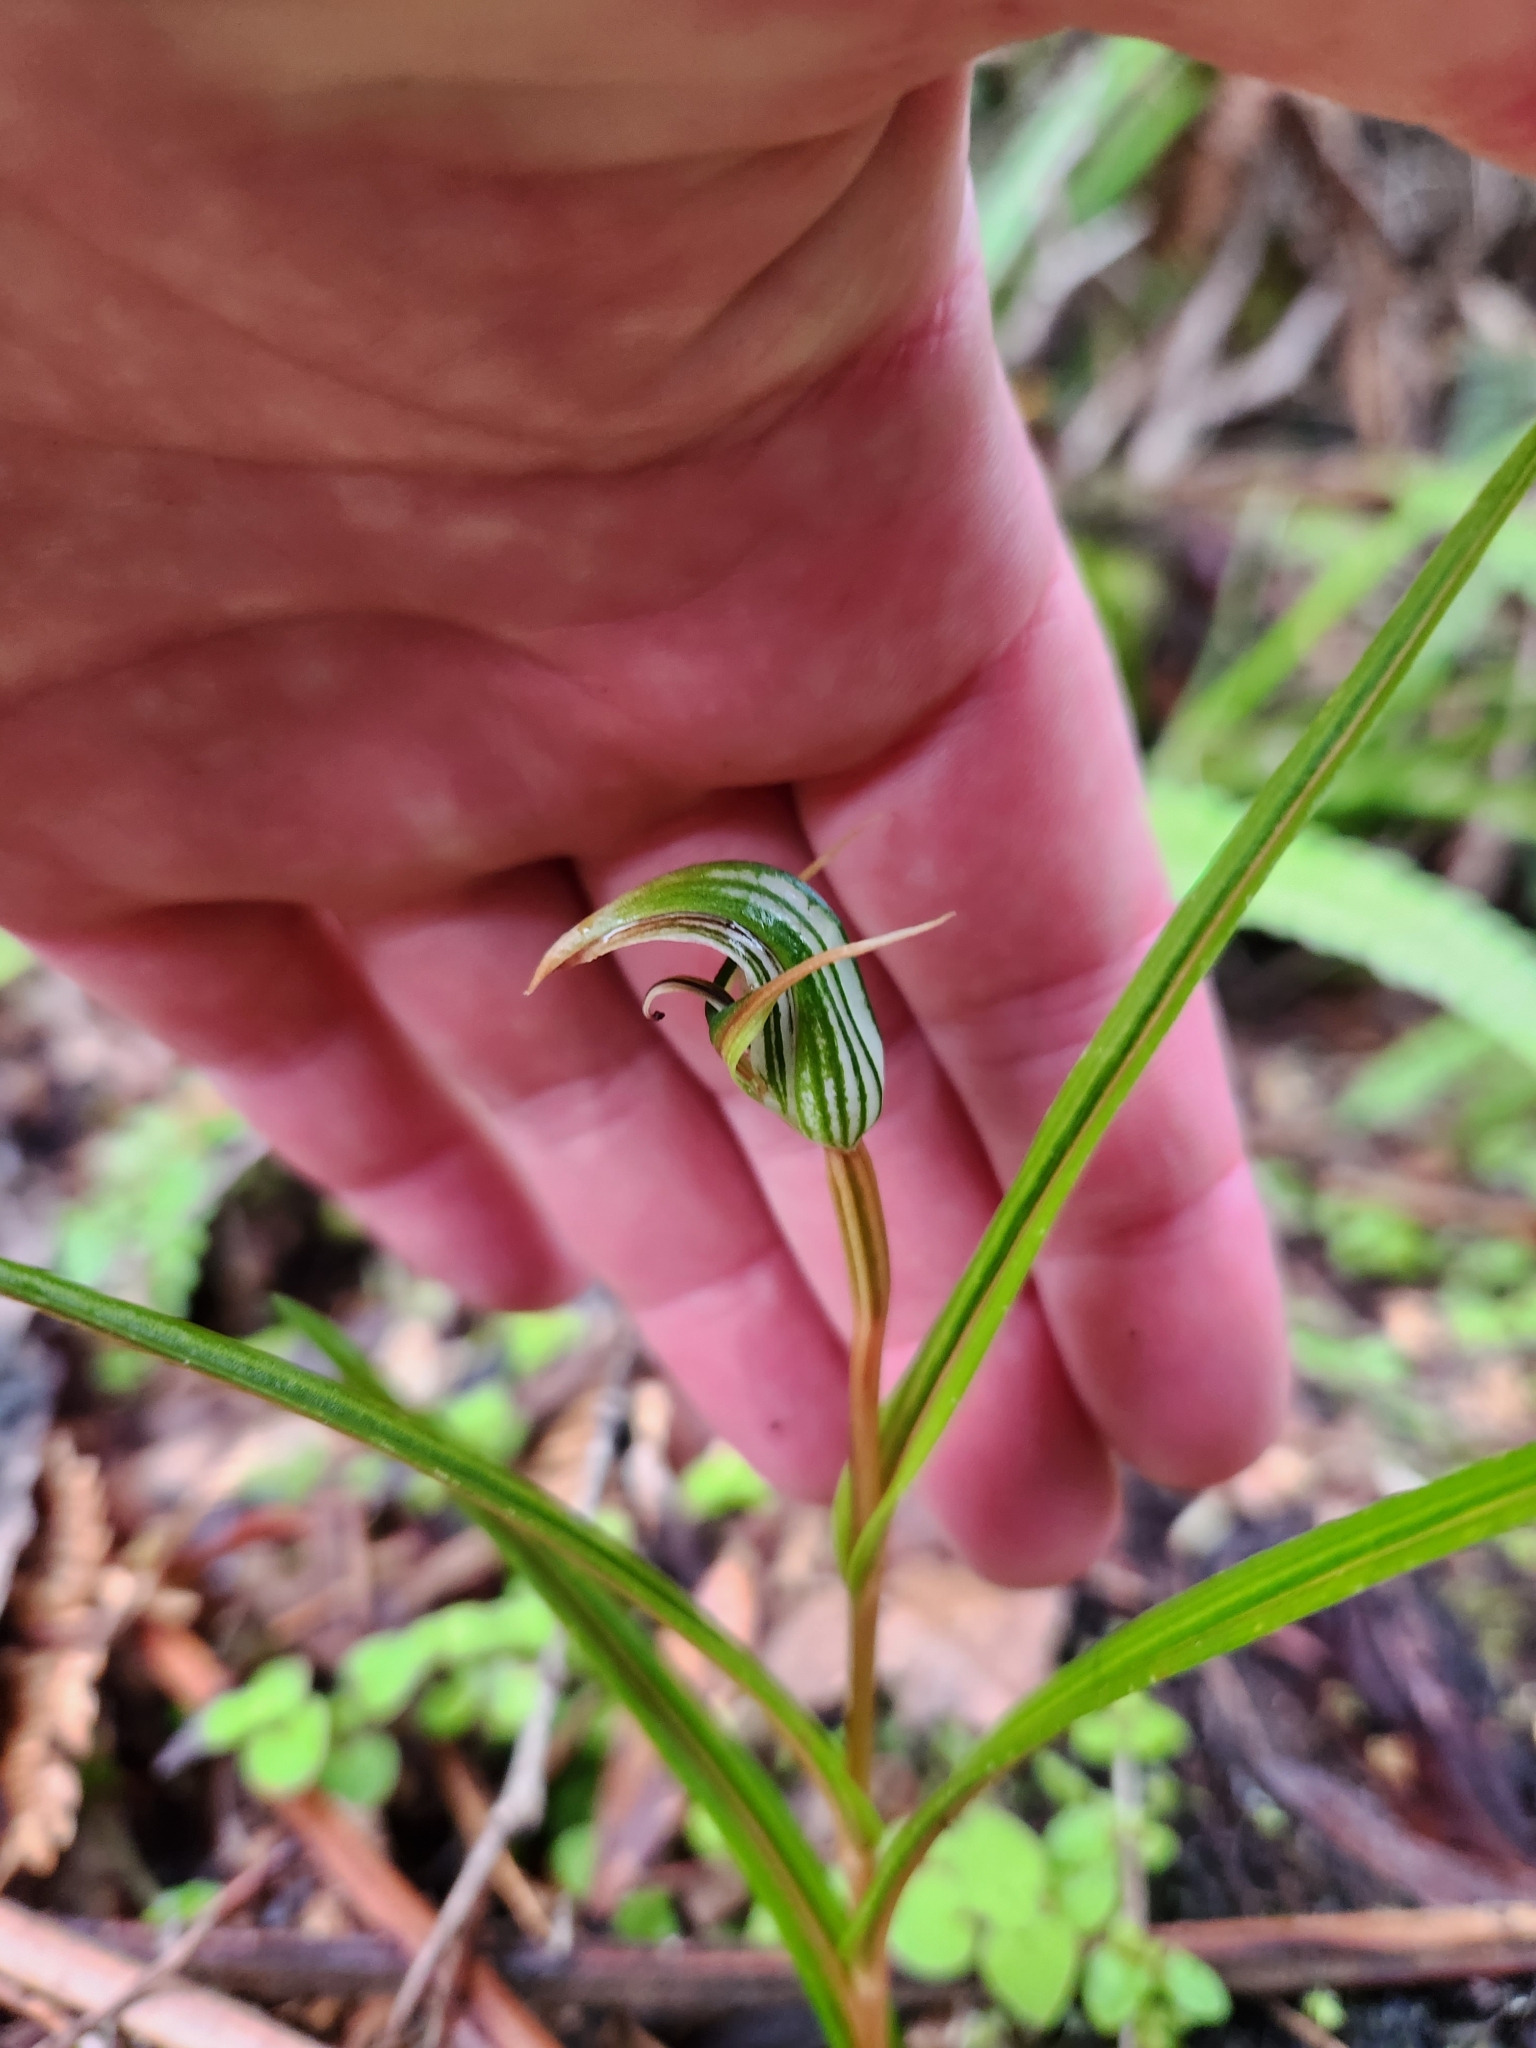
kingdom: Plantae
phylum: Tracheophyta
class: Liliopsida
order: Asparagales
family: Orchidaceae
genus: Pterostylis
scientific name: Pterostylis irsoniana
